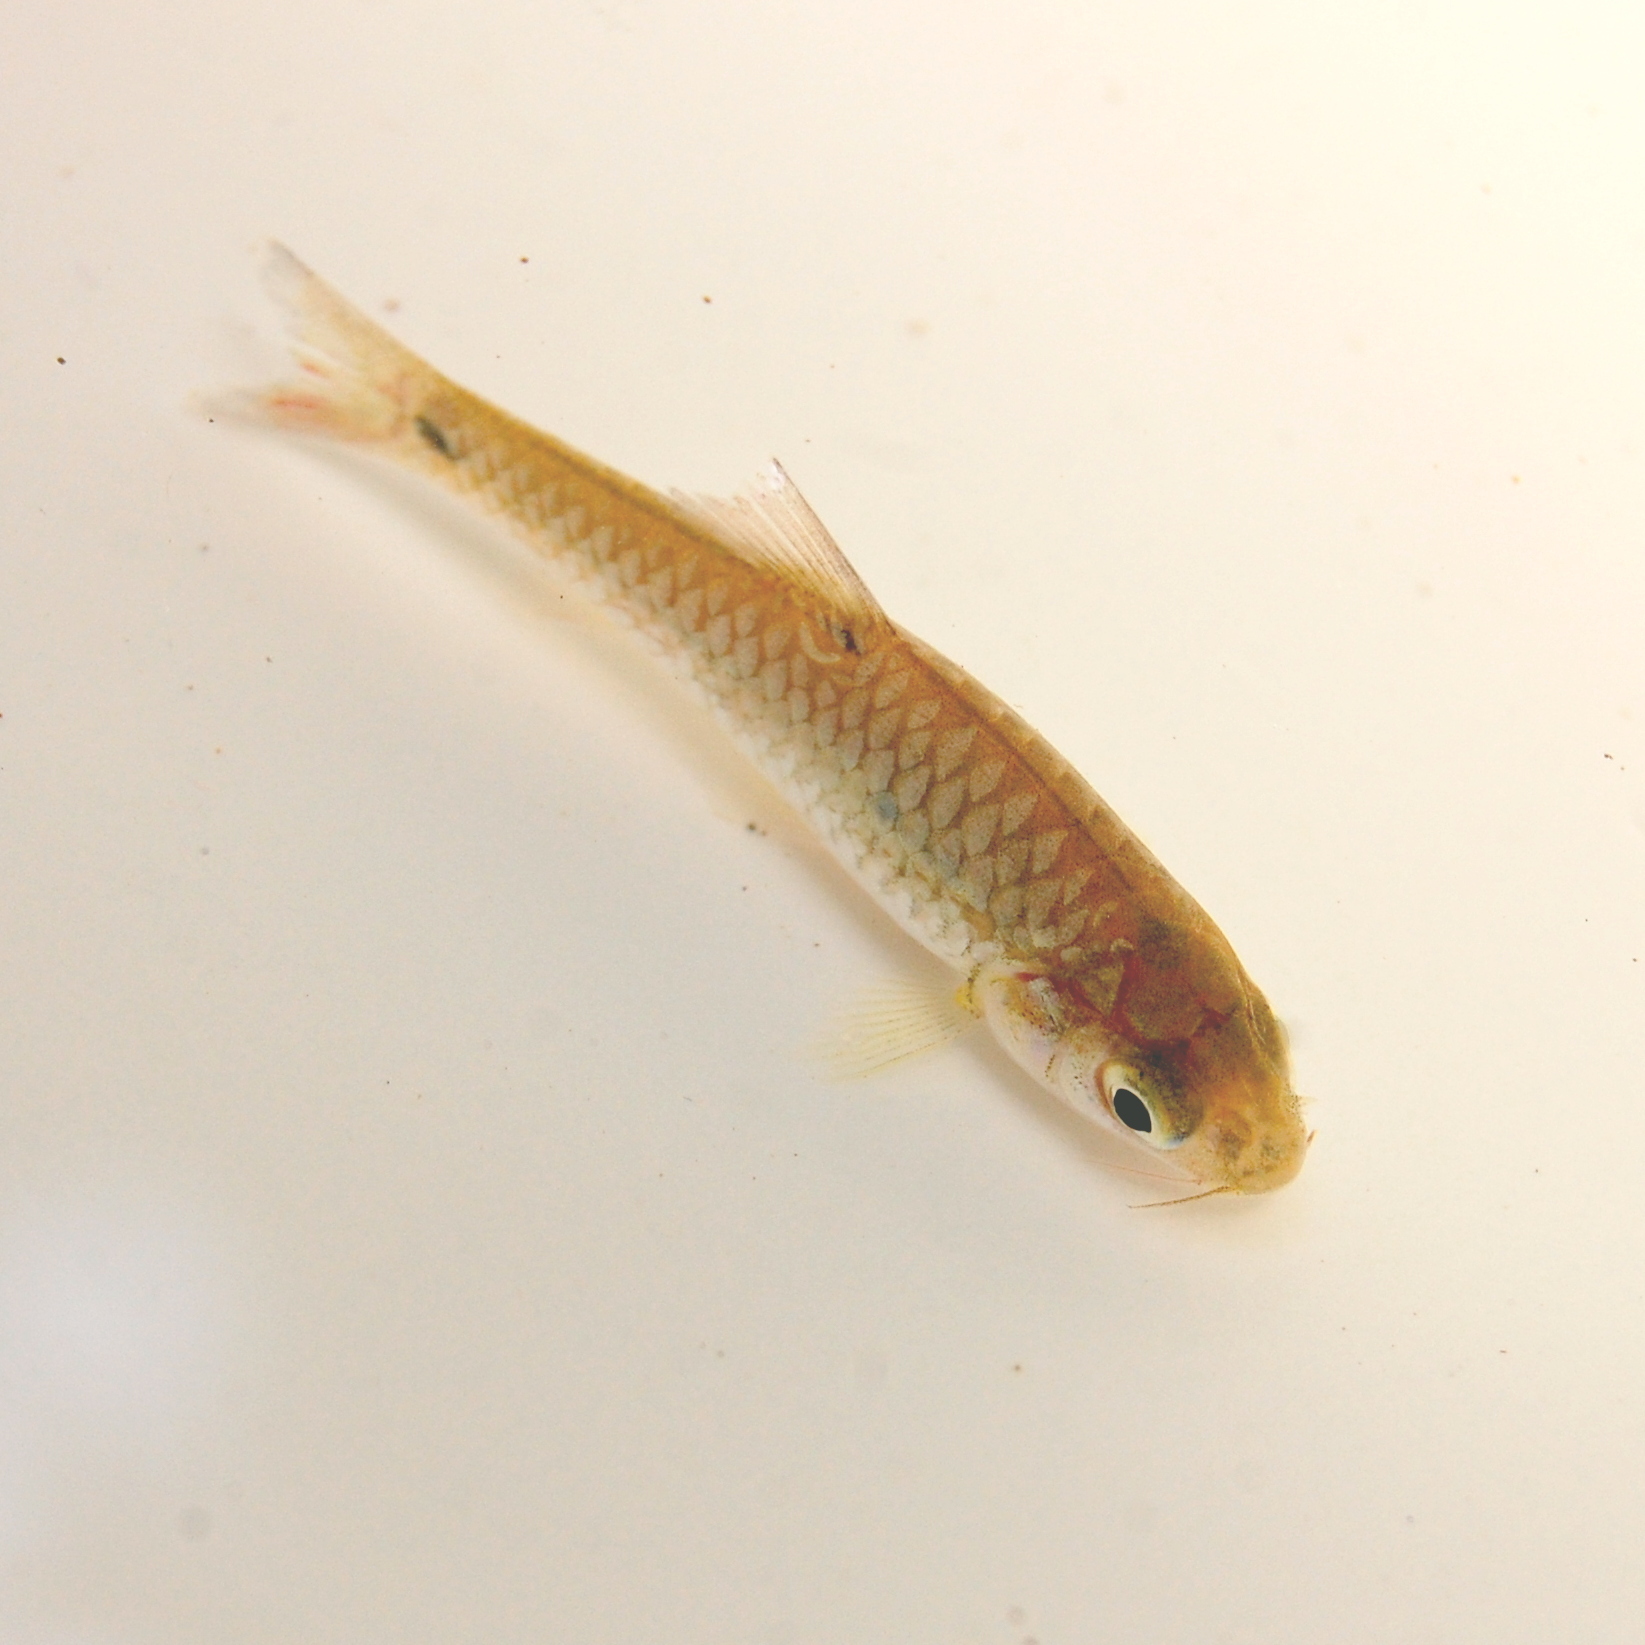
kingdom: Animalia
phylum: Chordata
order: Cypriniformes
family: Cyprinidae
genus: Barbodes
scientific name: Barbodes binotatus
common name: Spotted barb
